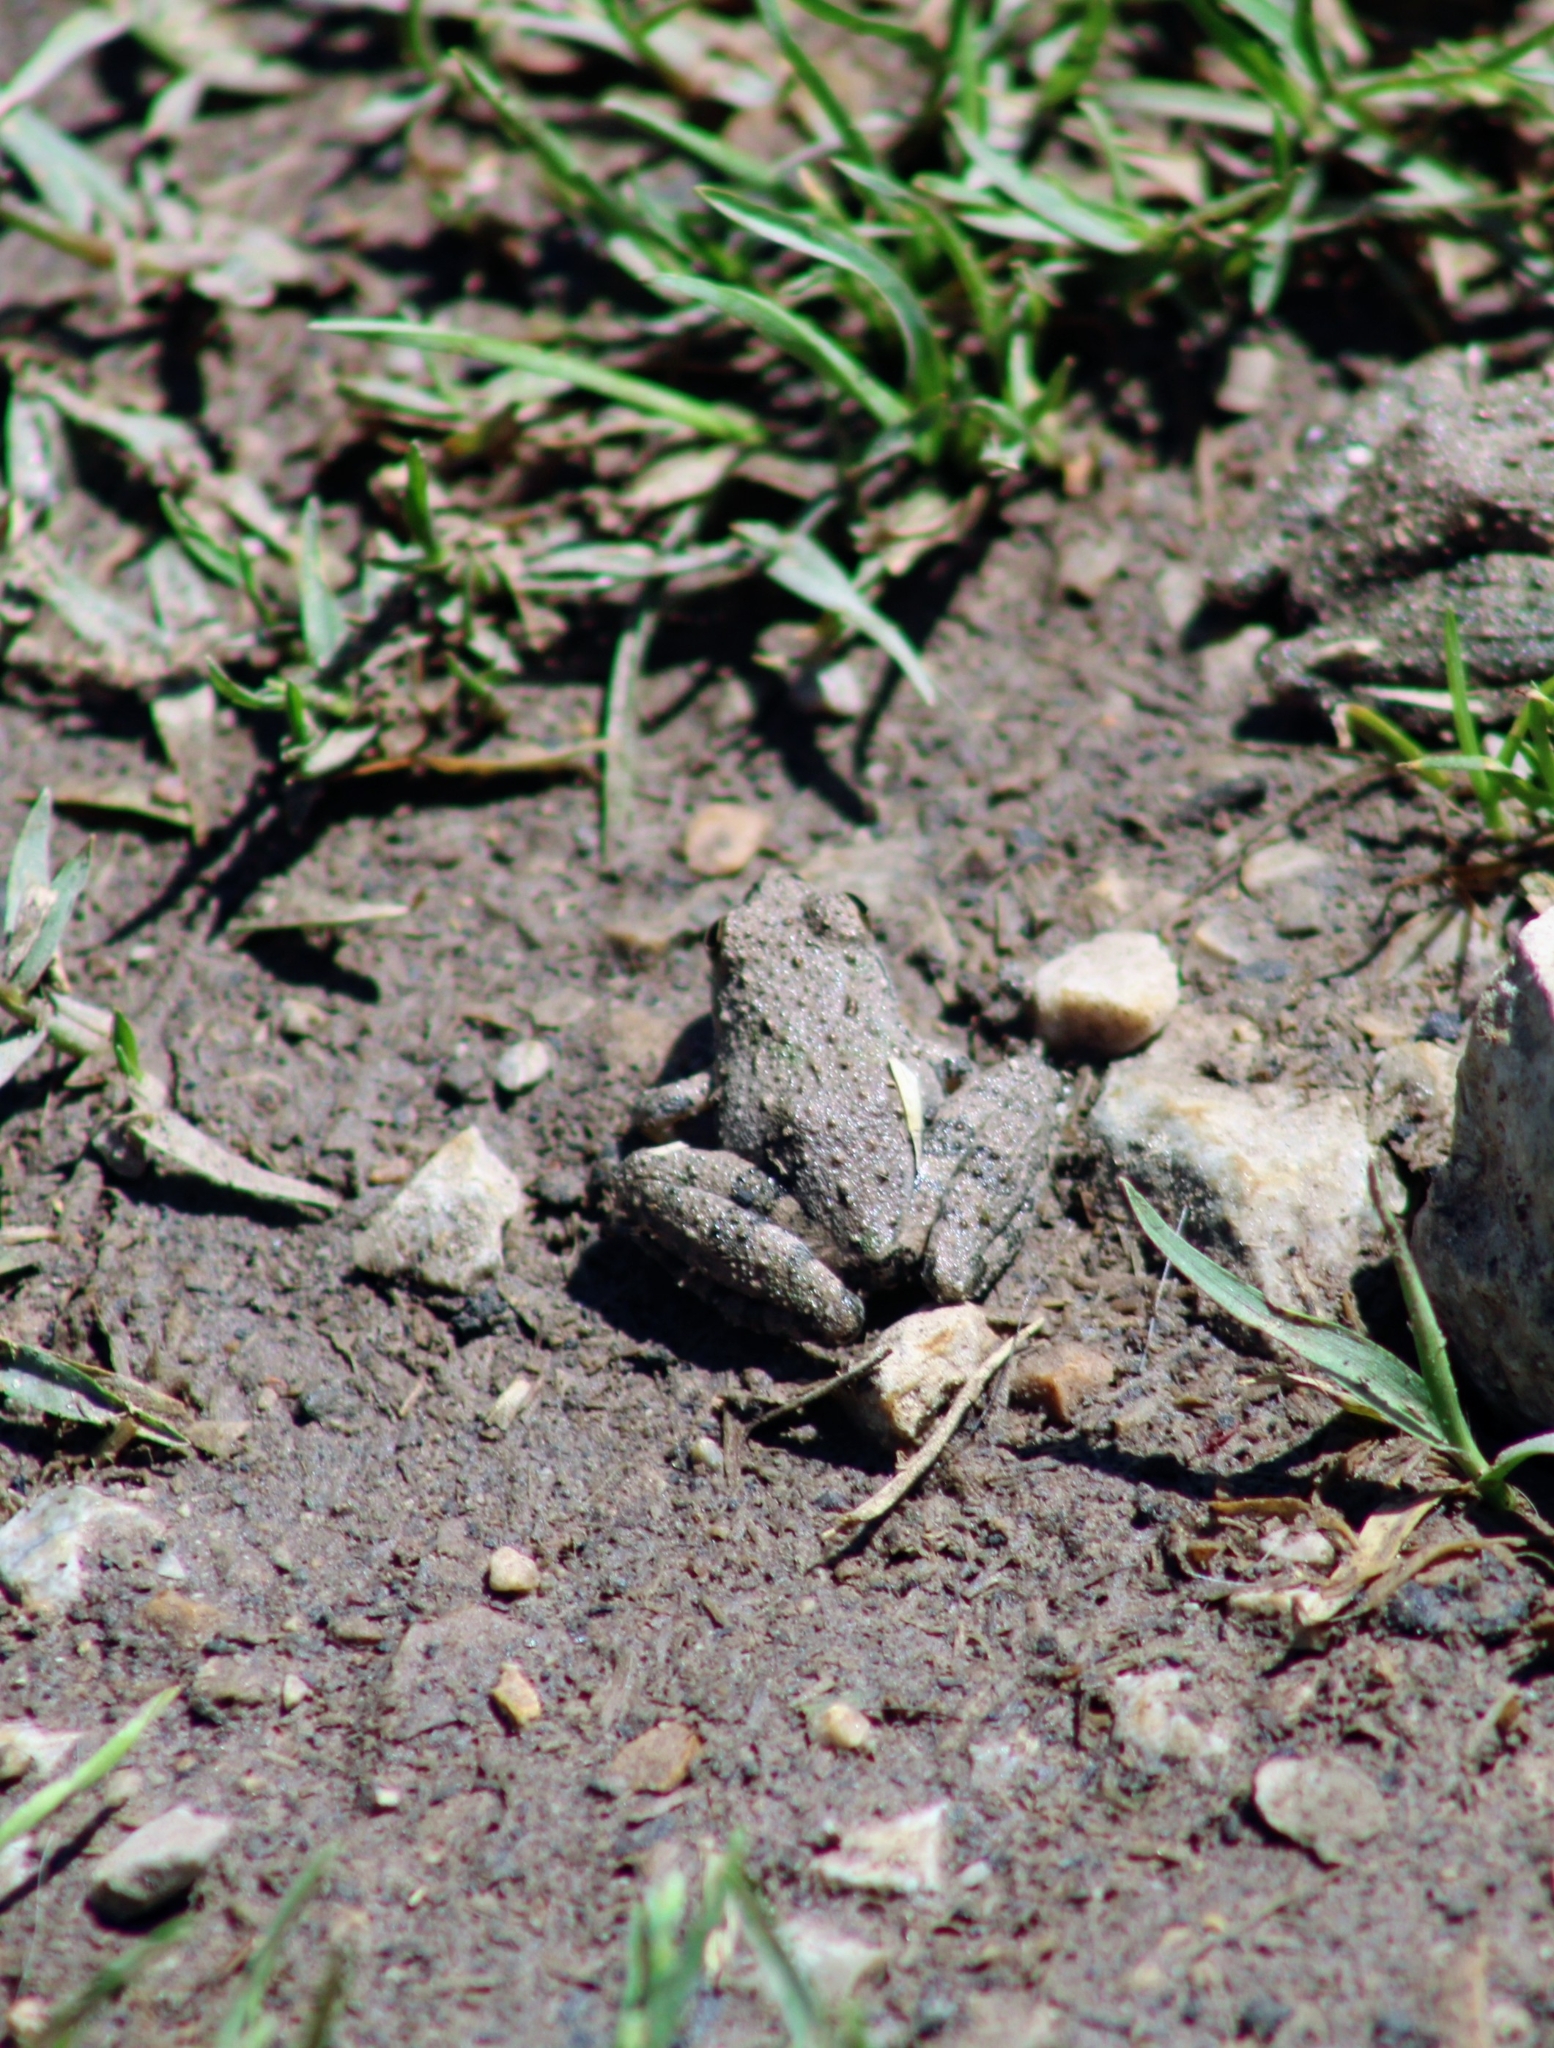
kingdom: Animalia
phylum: Chordata
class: Amphibia
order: Anura
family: Hylidae
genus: Acris
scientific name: Acris blanchardi
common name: Blanchard's cricket frog
